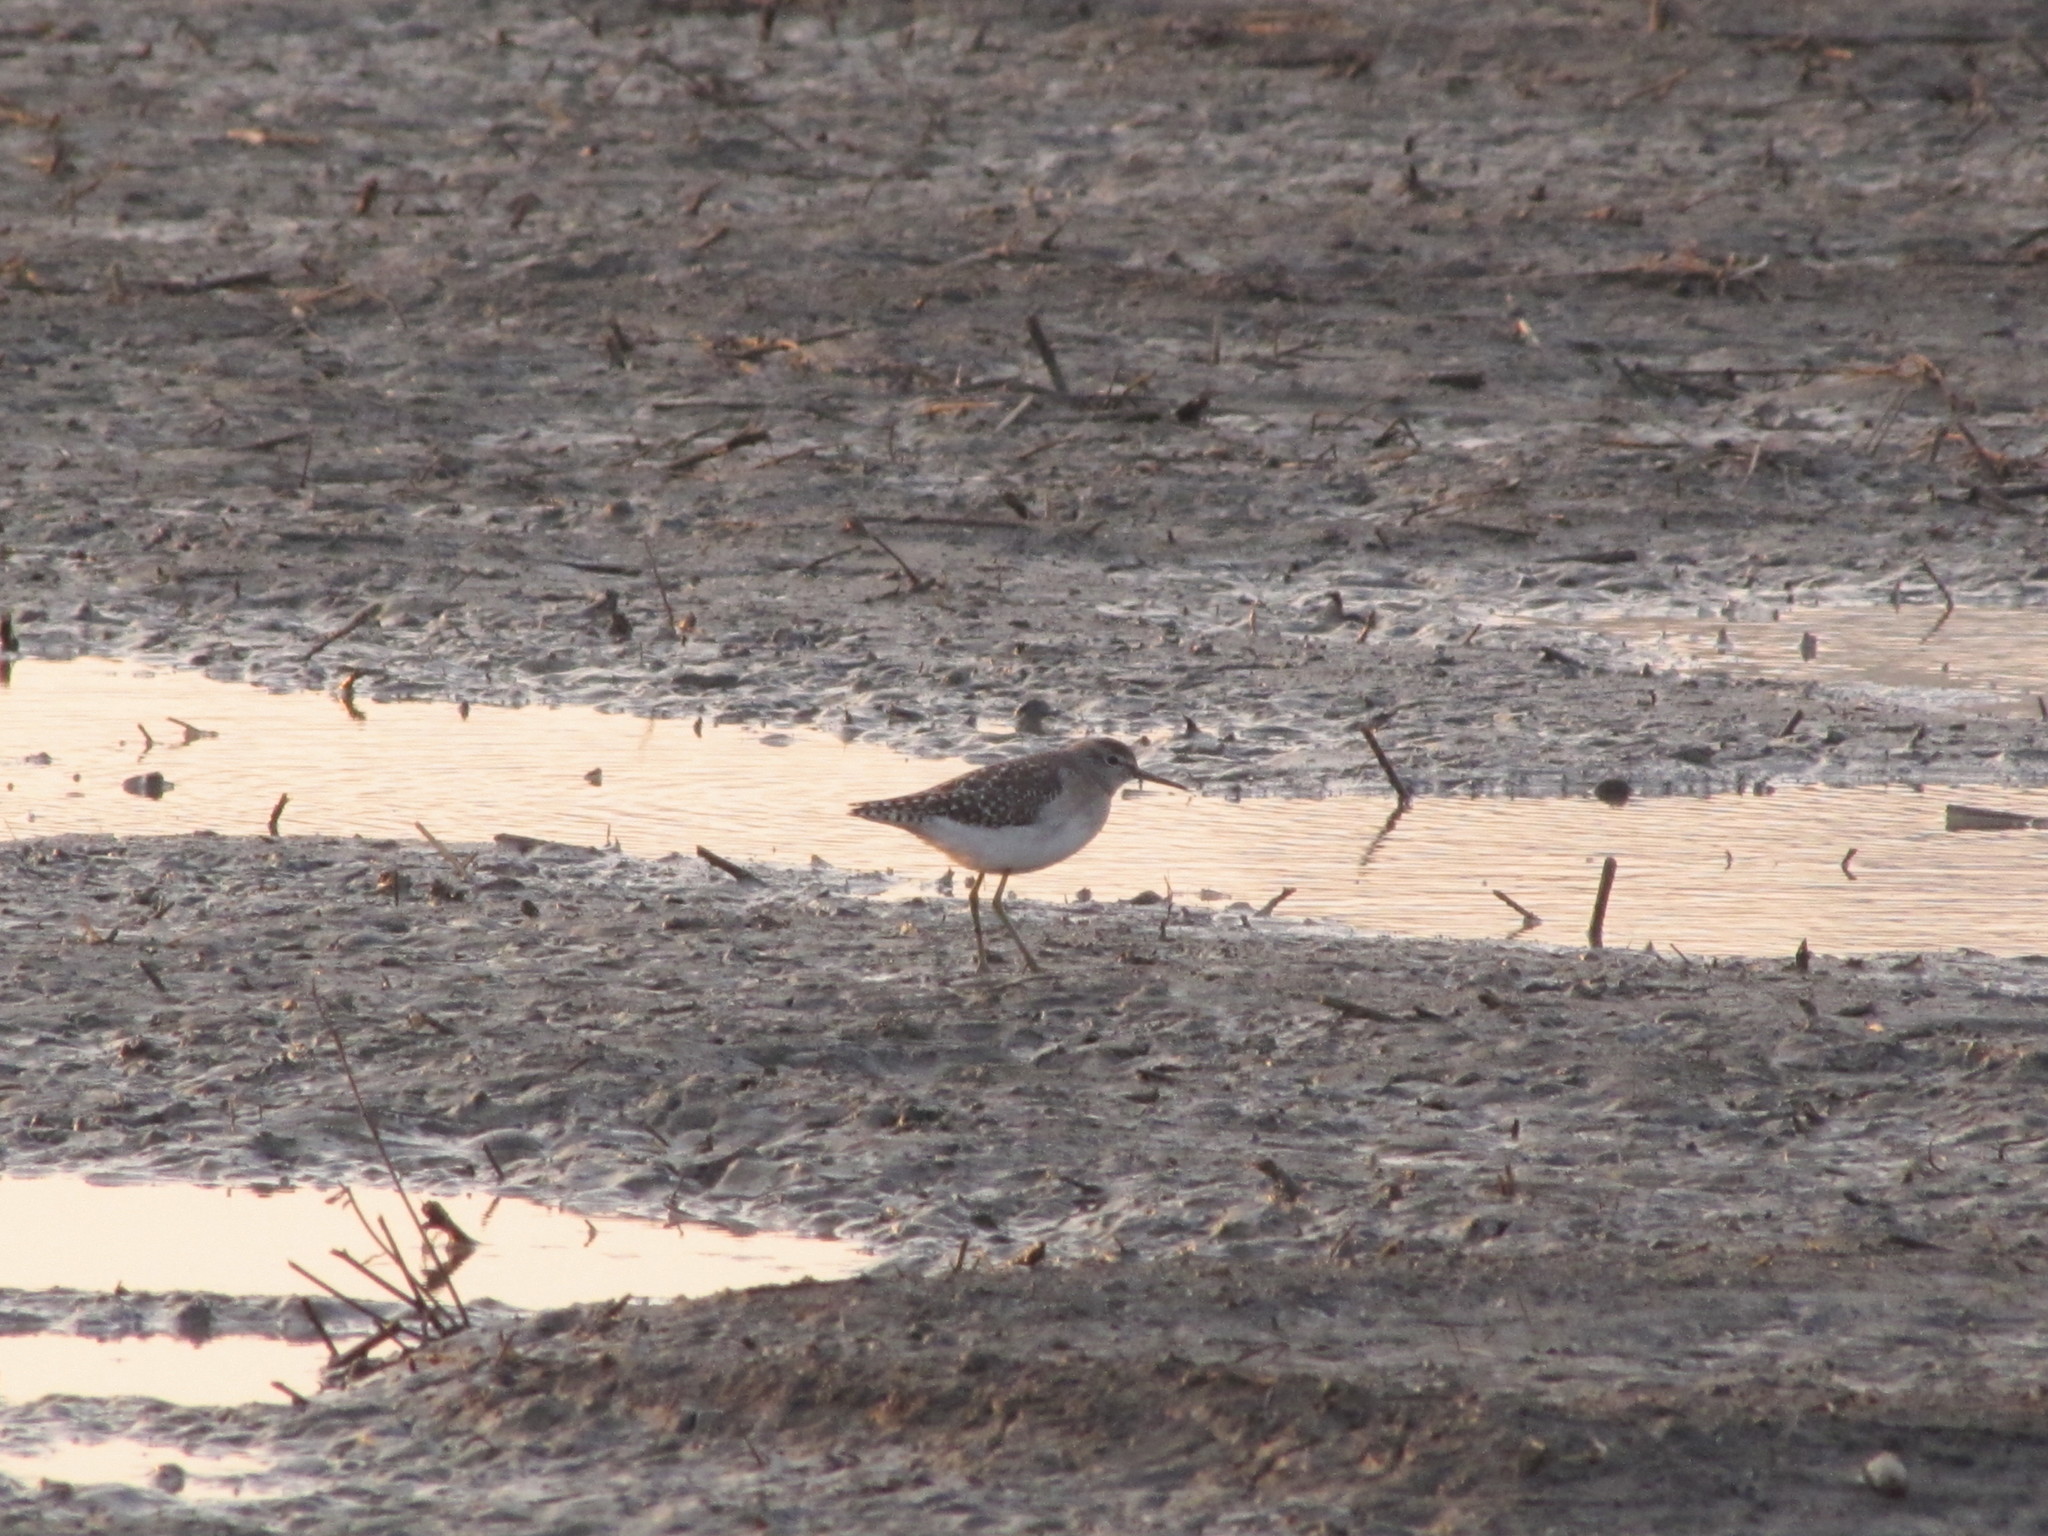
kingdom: Animalia
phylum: Chordata
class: Aves
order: Charadriiformes
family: Scolopacidae
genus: Tringa
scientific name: Tringa glareola
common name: Wood sandpiper
